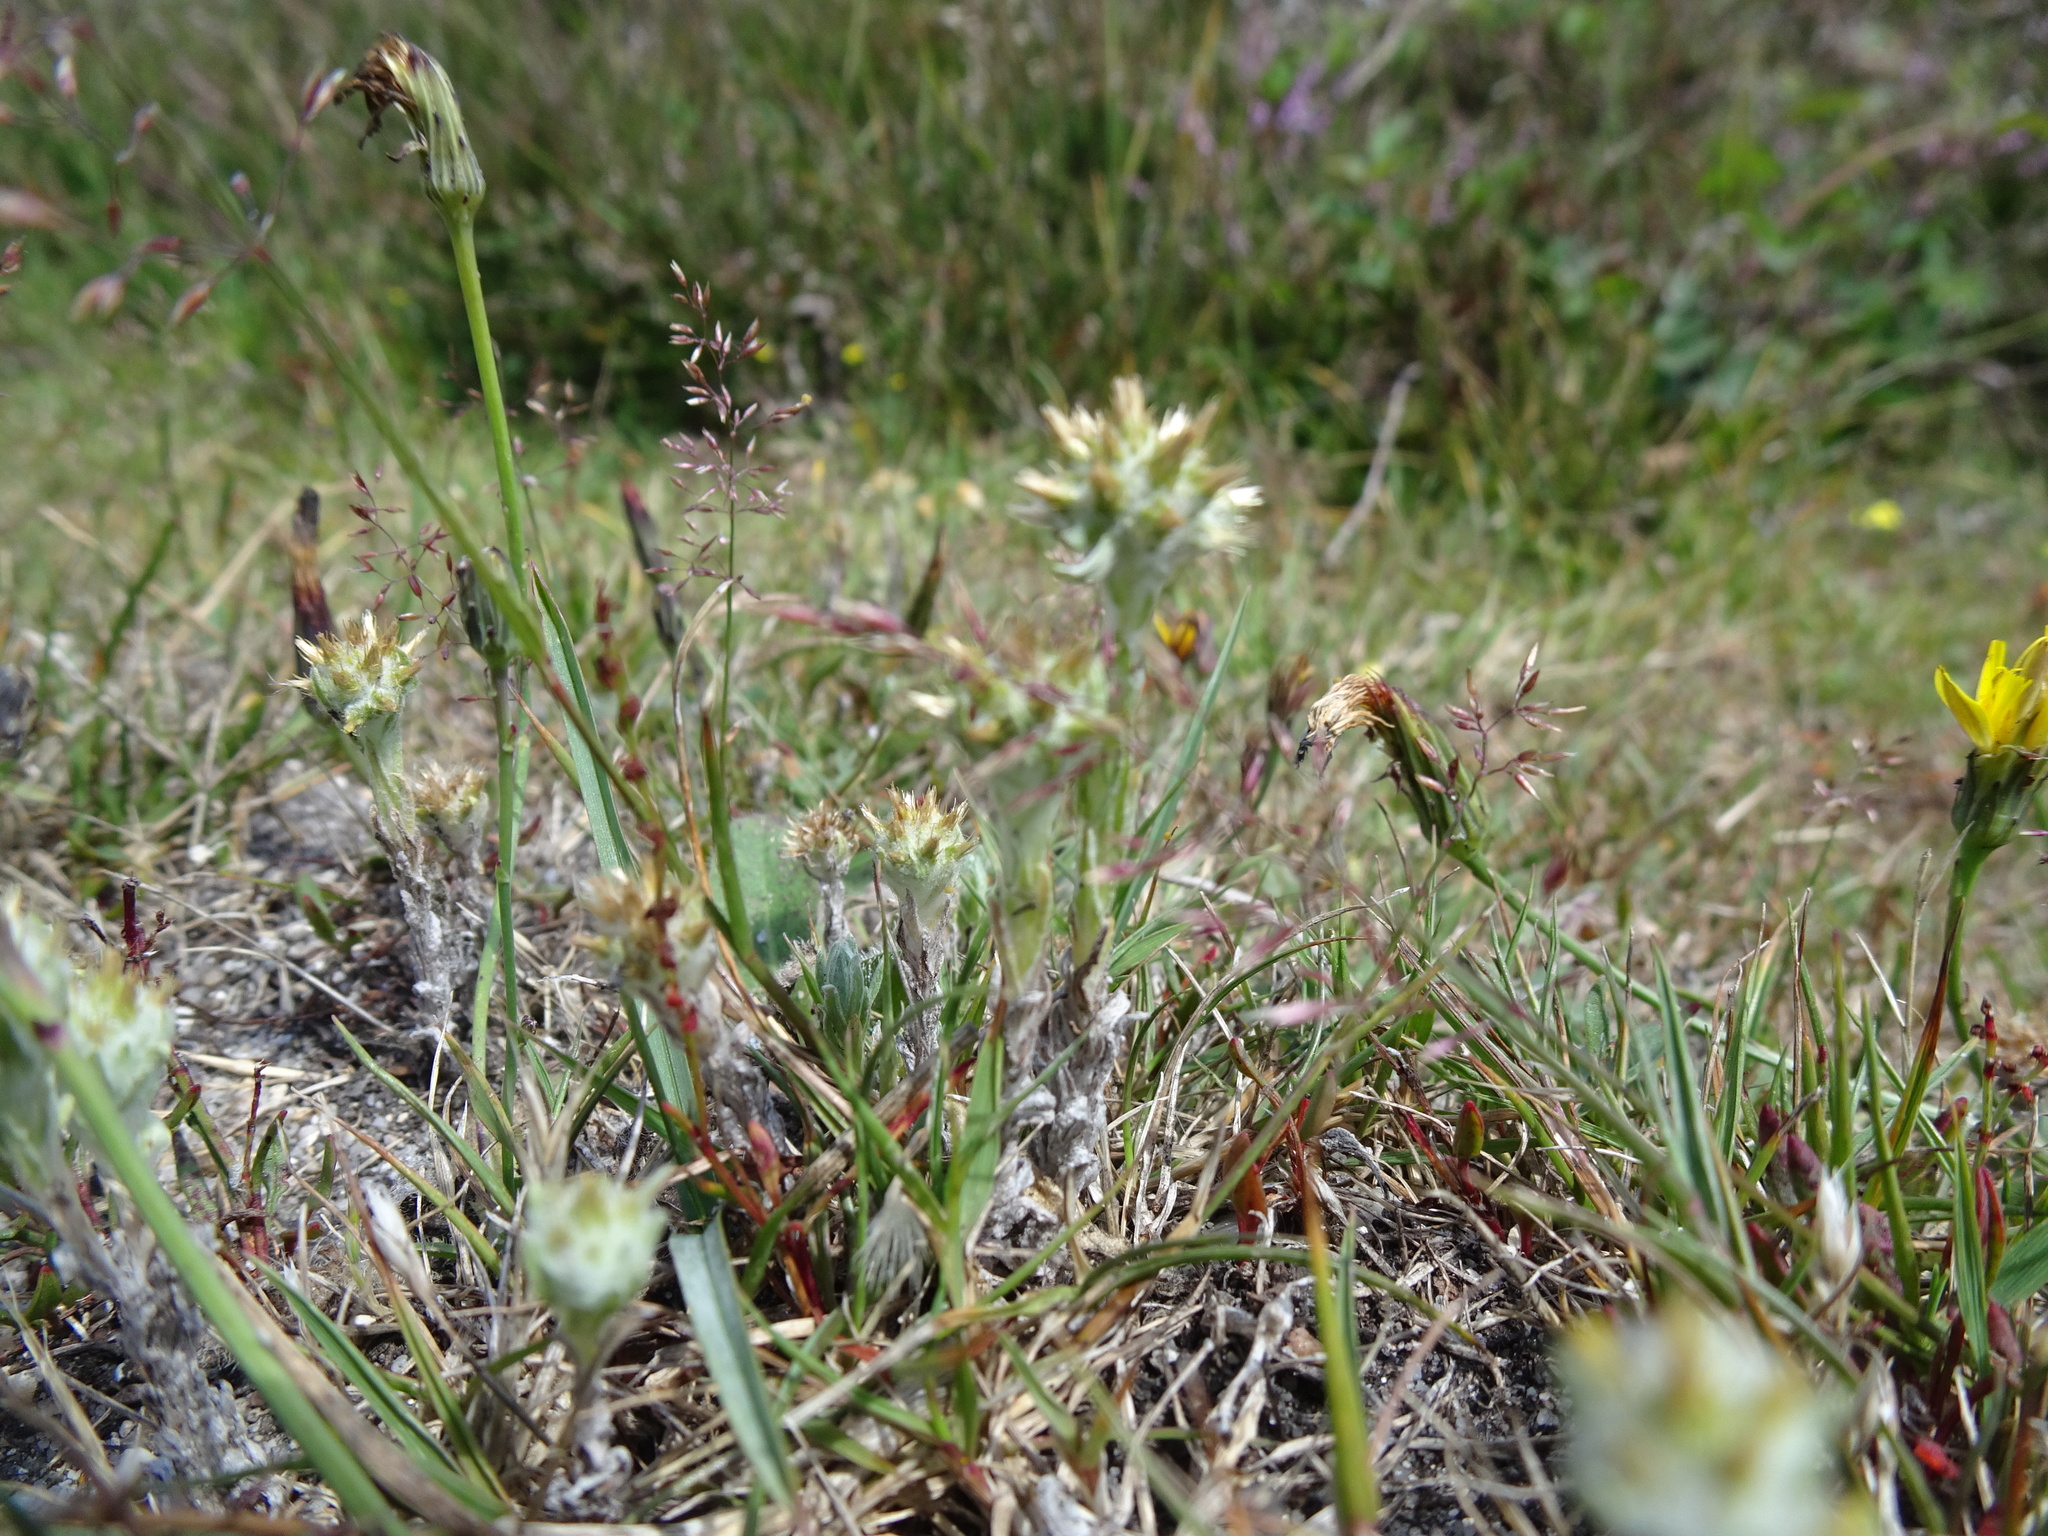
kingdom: Plantae
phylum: Tracheophyta
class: Magnoliopsida
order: Asterales
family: Asteraceae
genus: Filago
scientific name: Filago germanica
